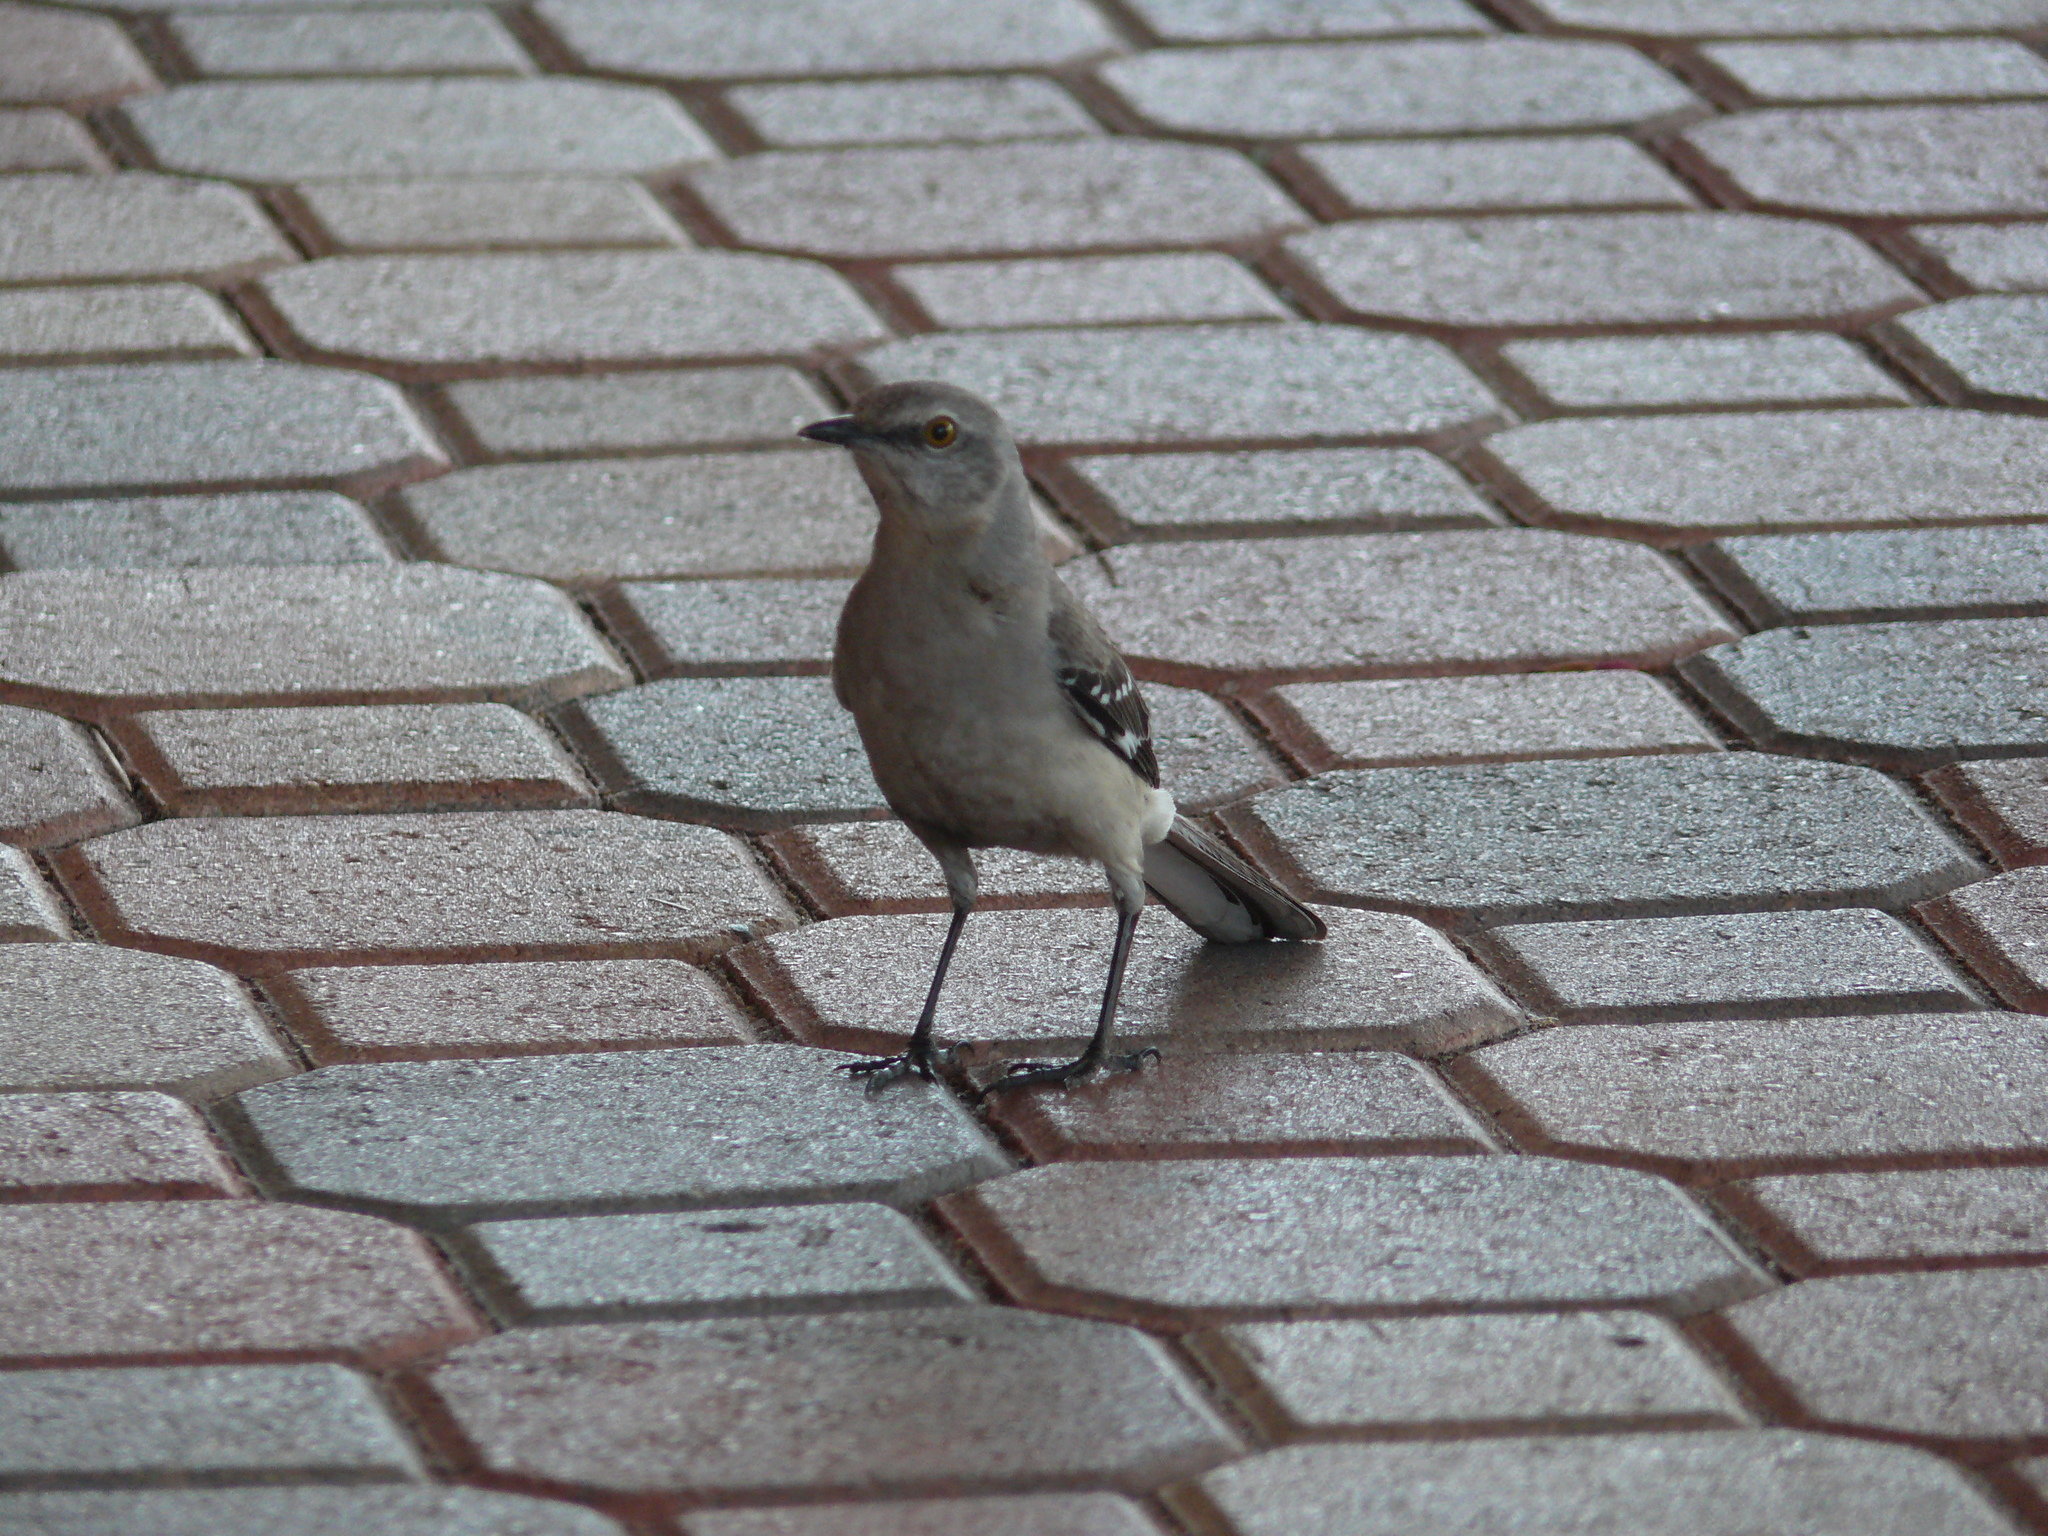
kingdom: Animalia
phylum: Chordata
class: Aves
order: Passeriformes
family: Mimidae
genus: Mimus
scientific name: Mimus polyglottos
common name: Northern mockingbird
